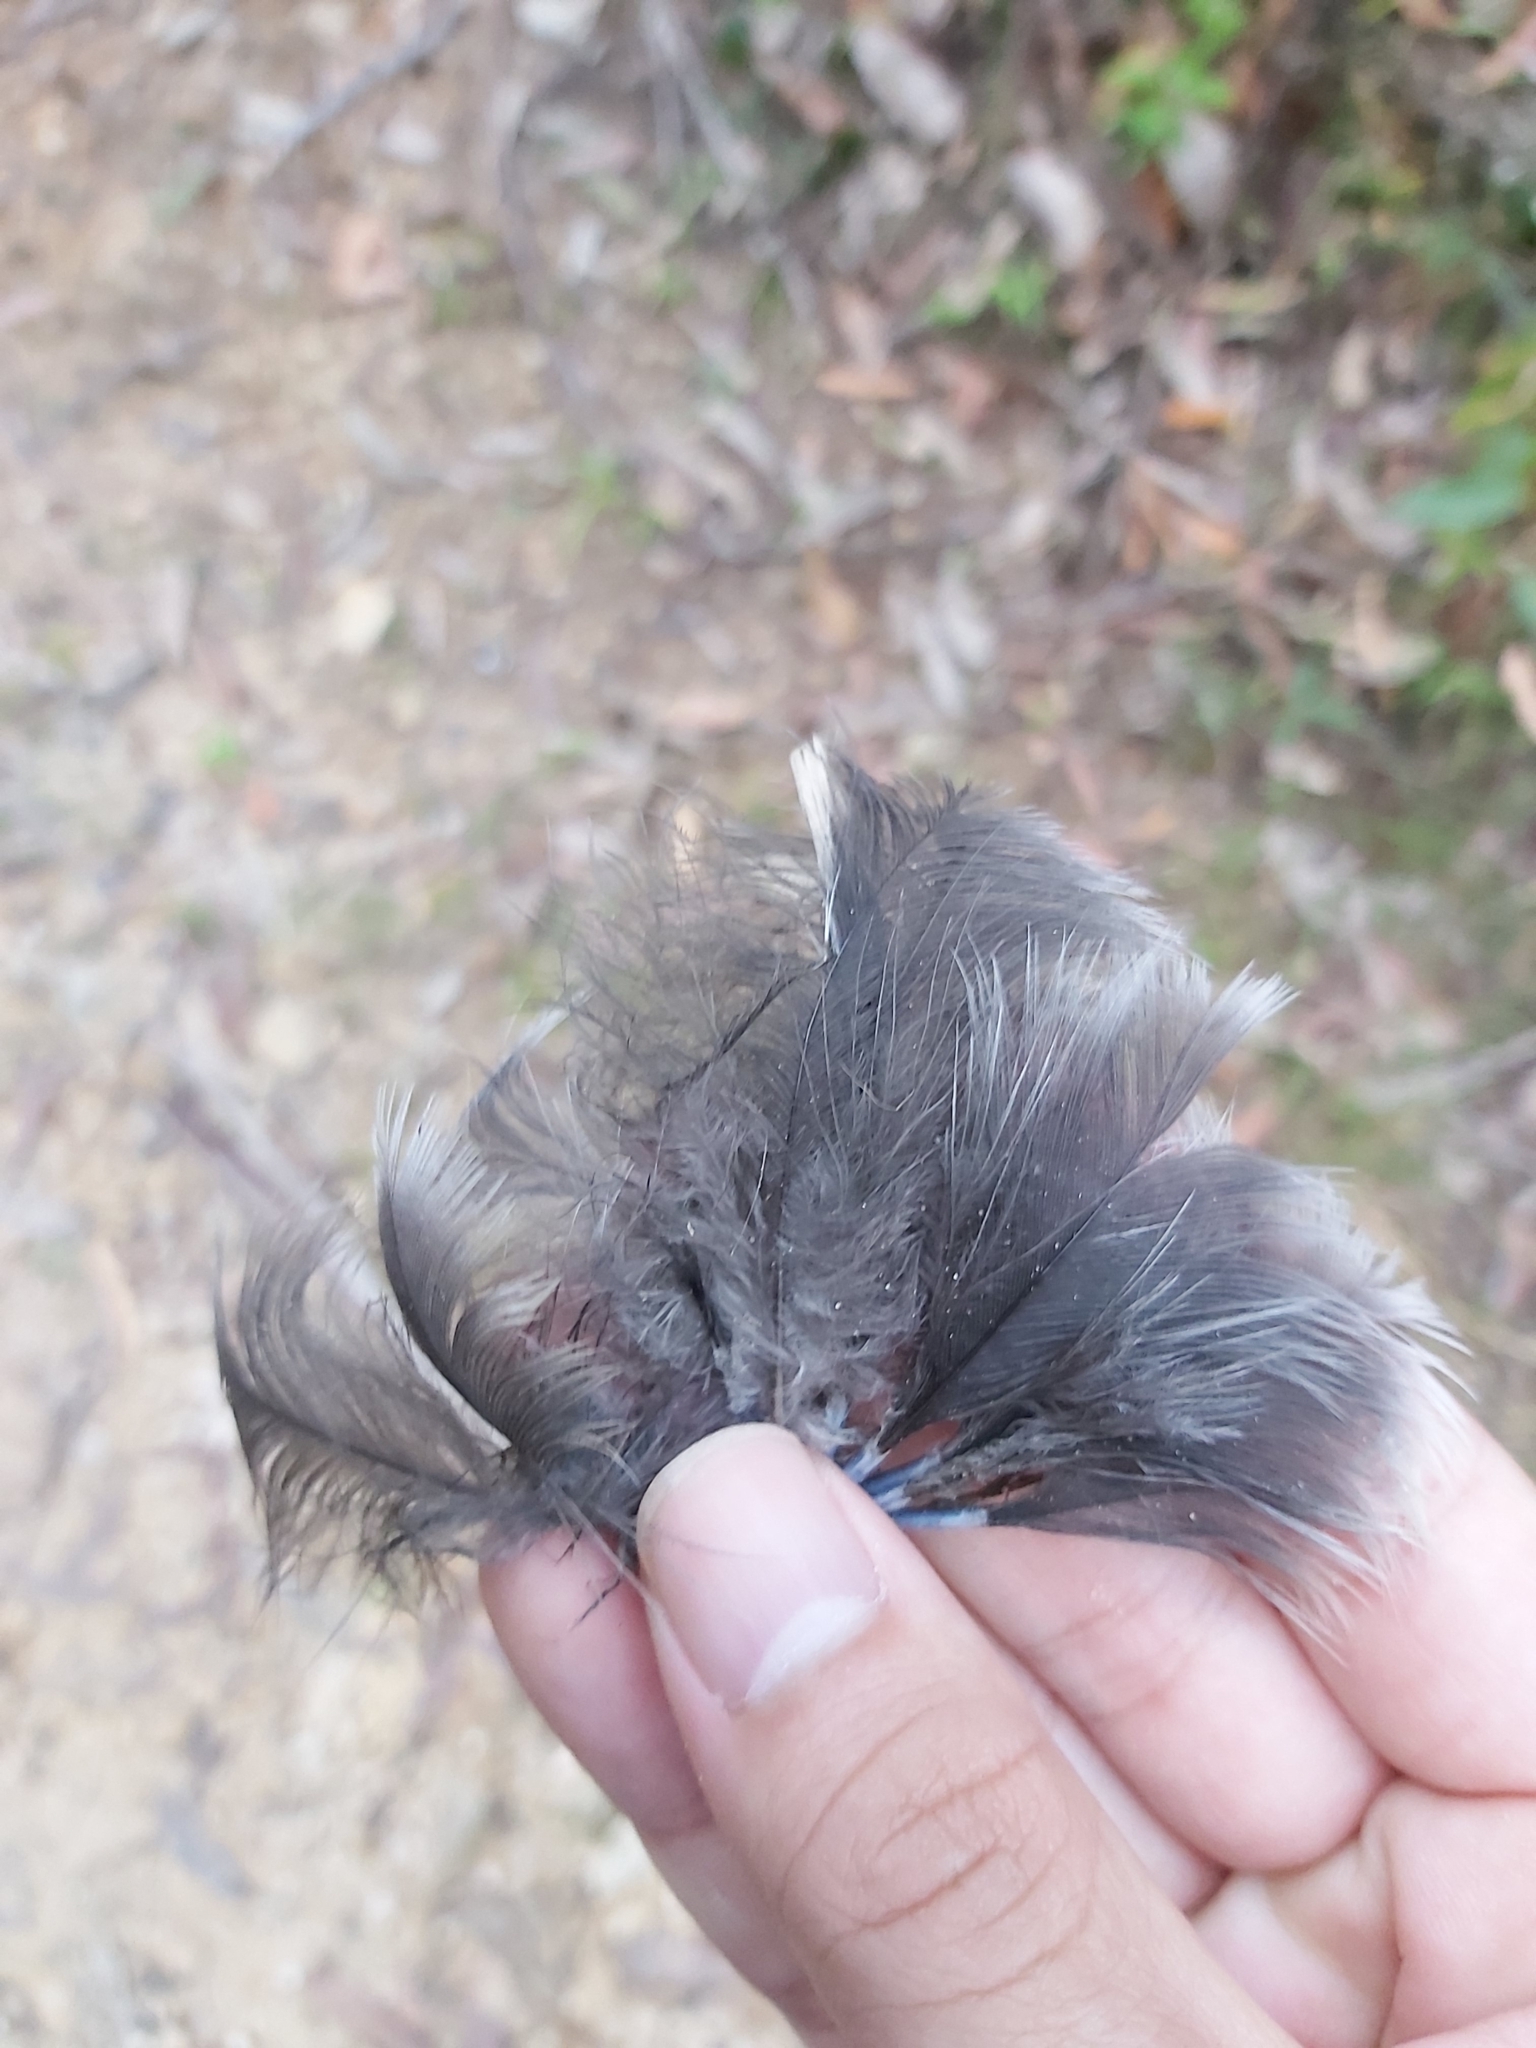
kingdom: Animalia
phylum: Chordata
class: Aves
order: Passeriformes
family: Corvidae
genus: Corvus
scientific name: Corvus coronoides
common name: Australian raven
